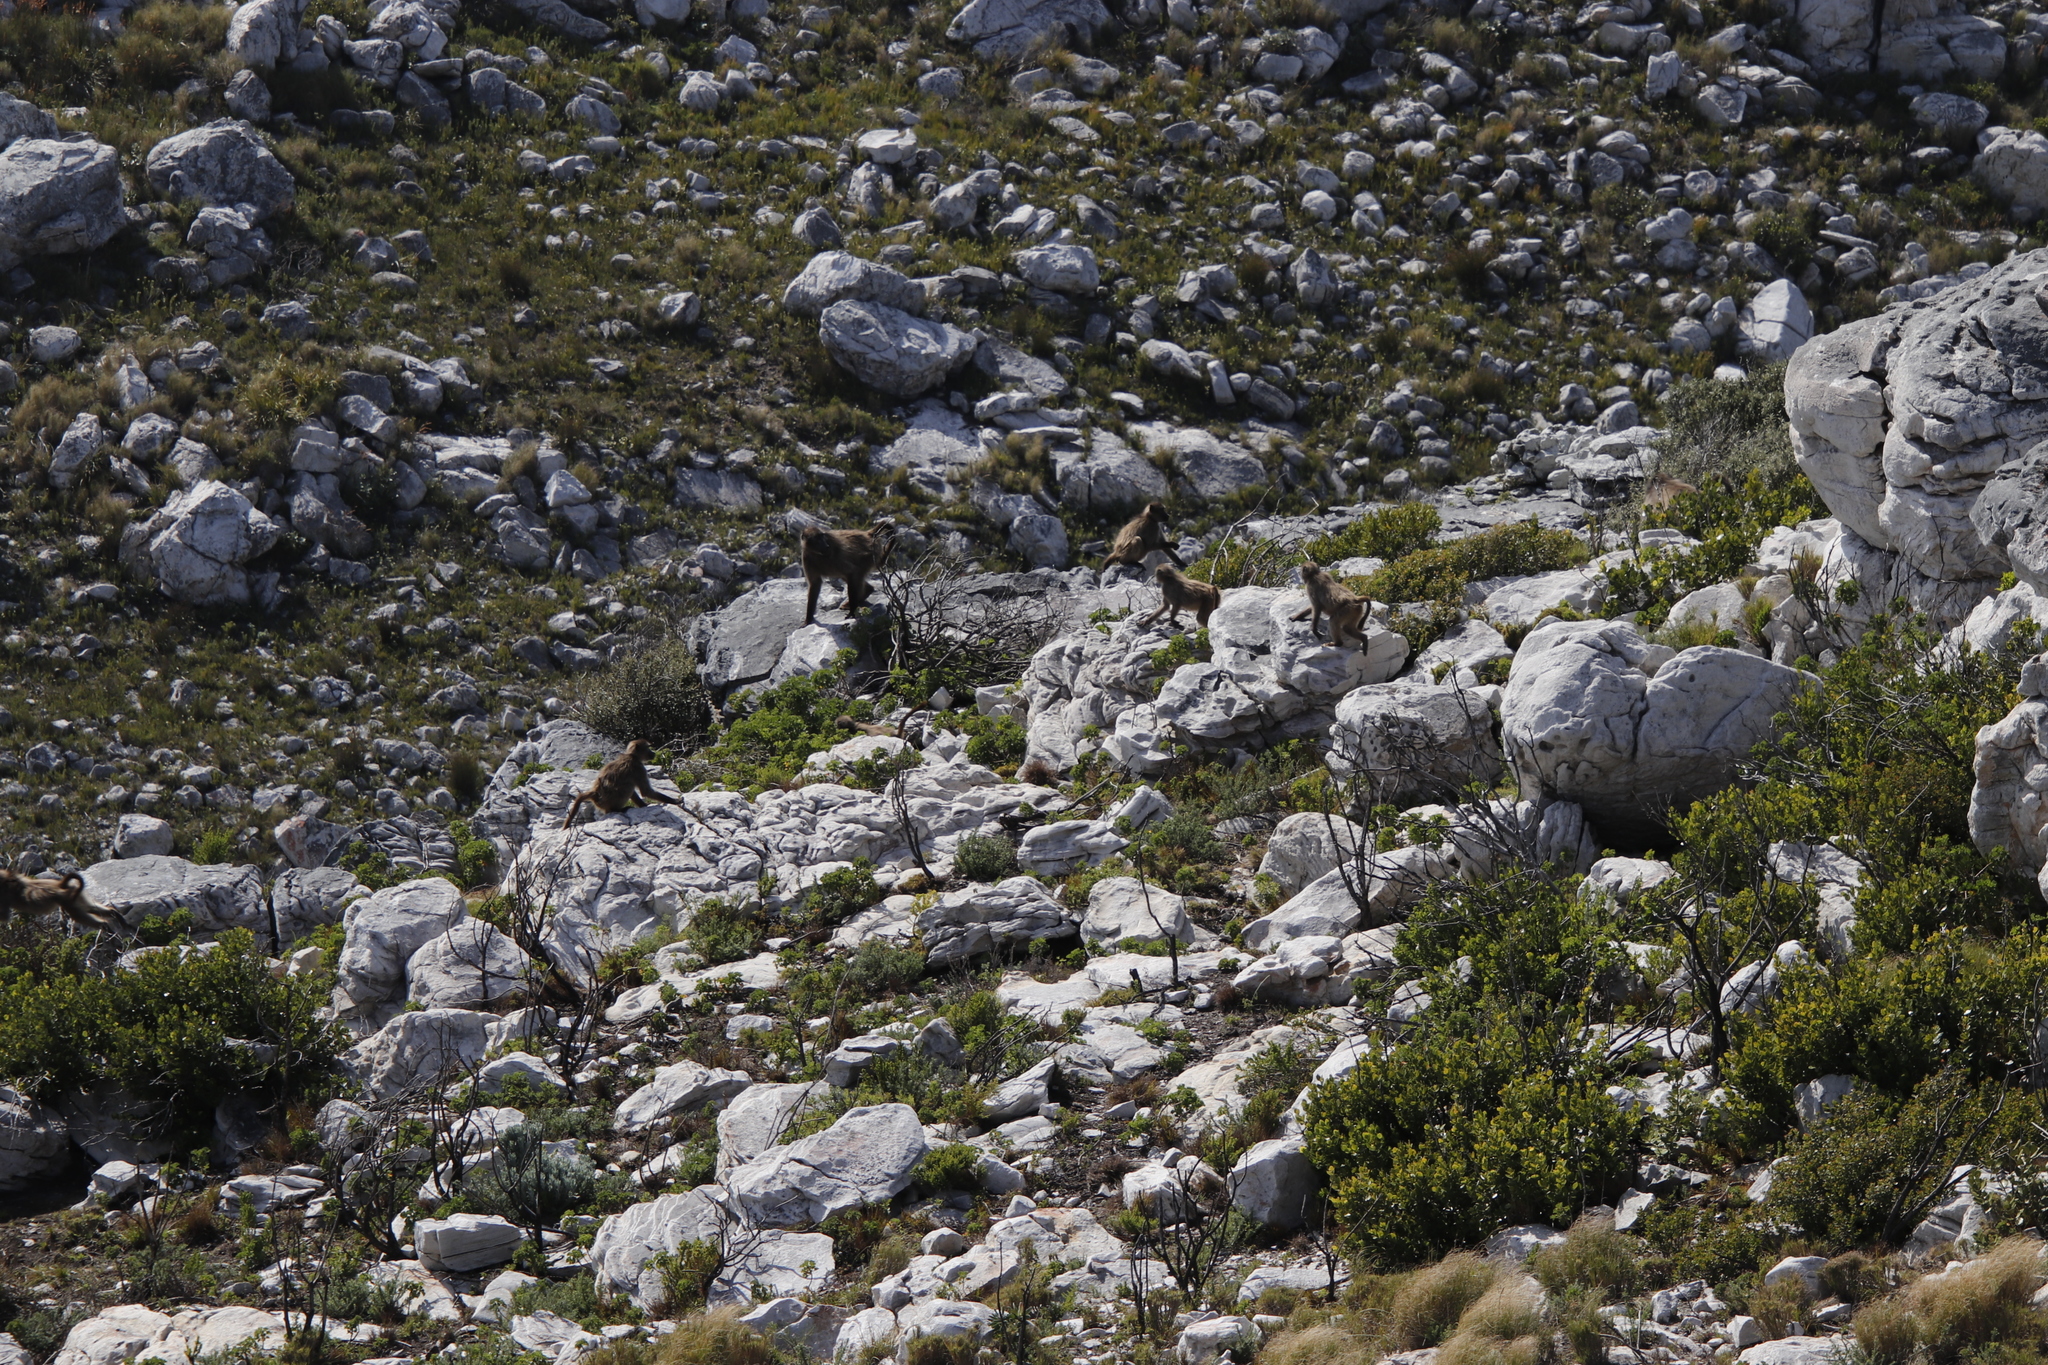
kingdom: Animalia
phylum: Chordata
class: Mammalia
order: Primates
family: Cercopithecidae
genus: Papio
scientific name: Papio ursinus
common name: Chacma baboon
